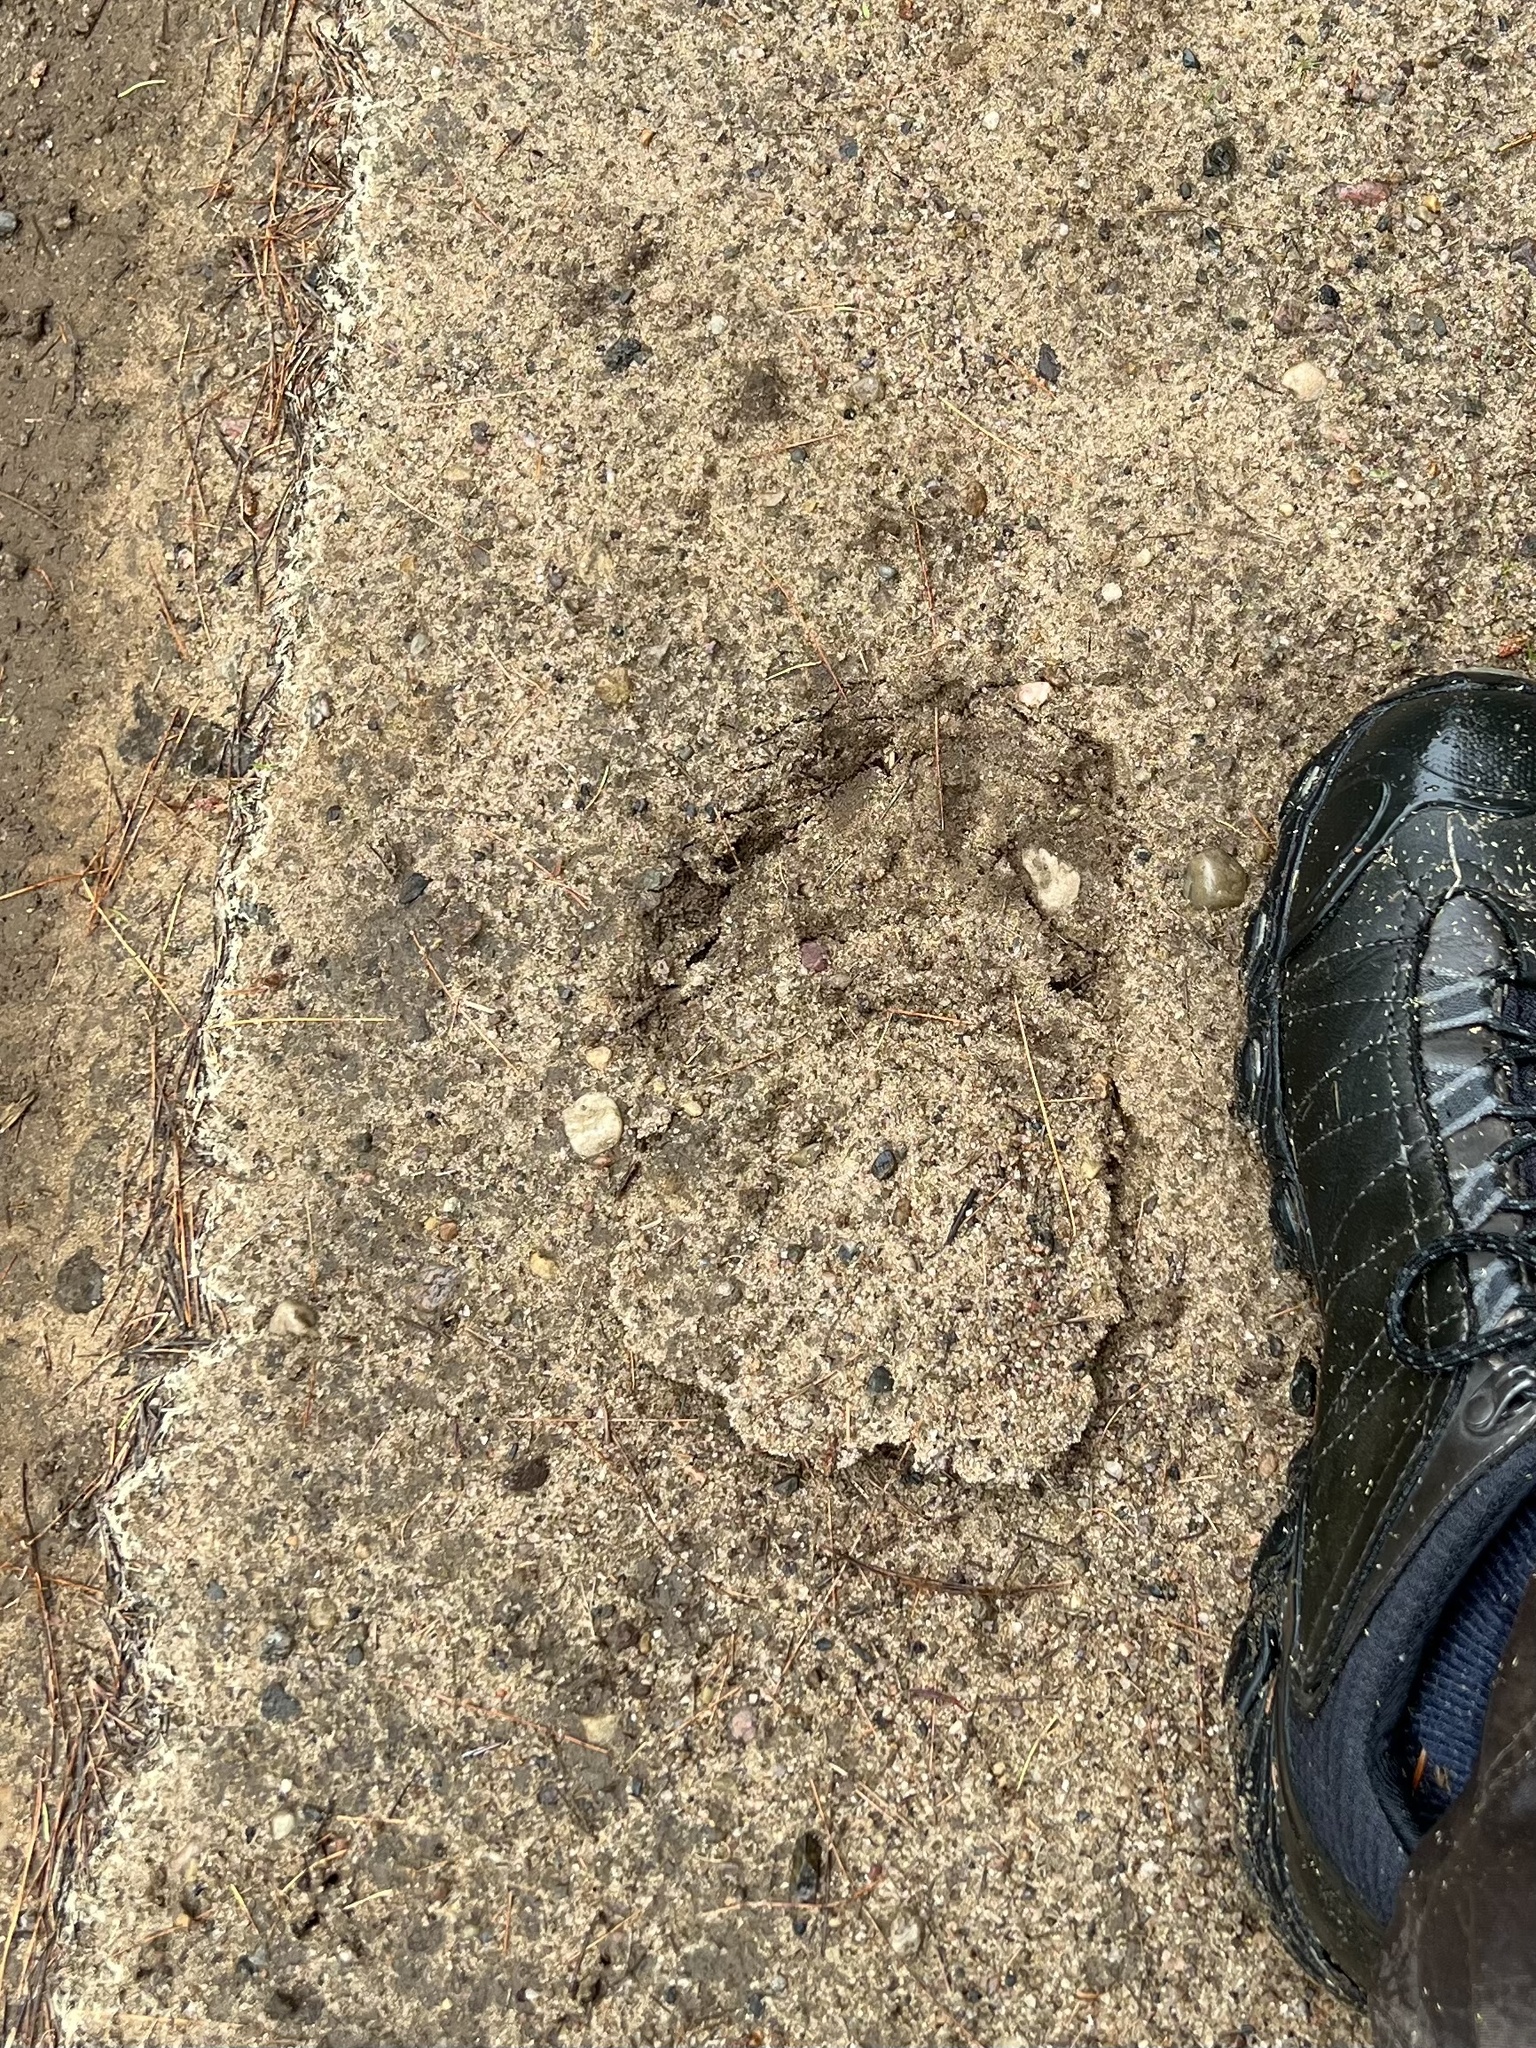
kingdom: Animalia
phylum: Chordata
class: Mammalia
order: Carnivora
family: Ursidae
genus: Ursus
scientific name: Ursus americanus
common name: American black bear
